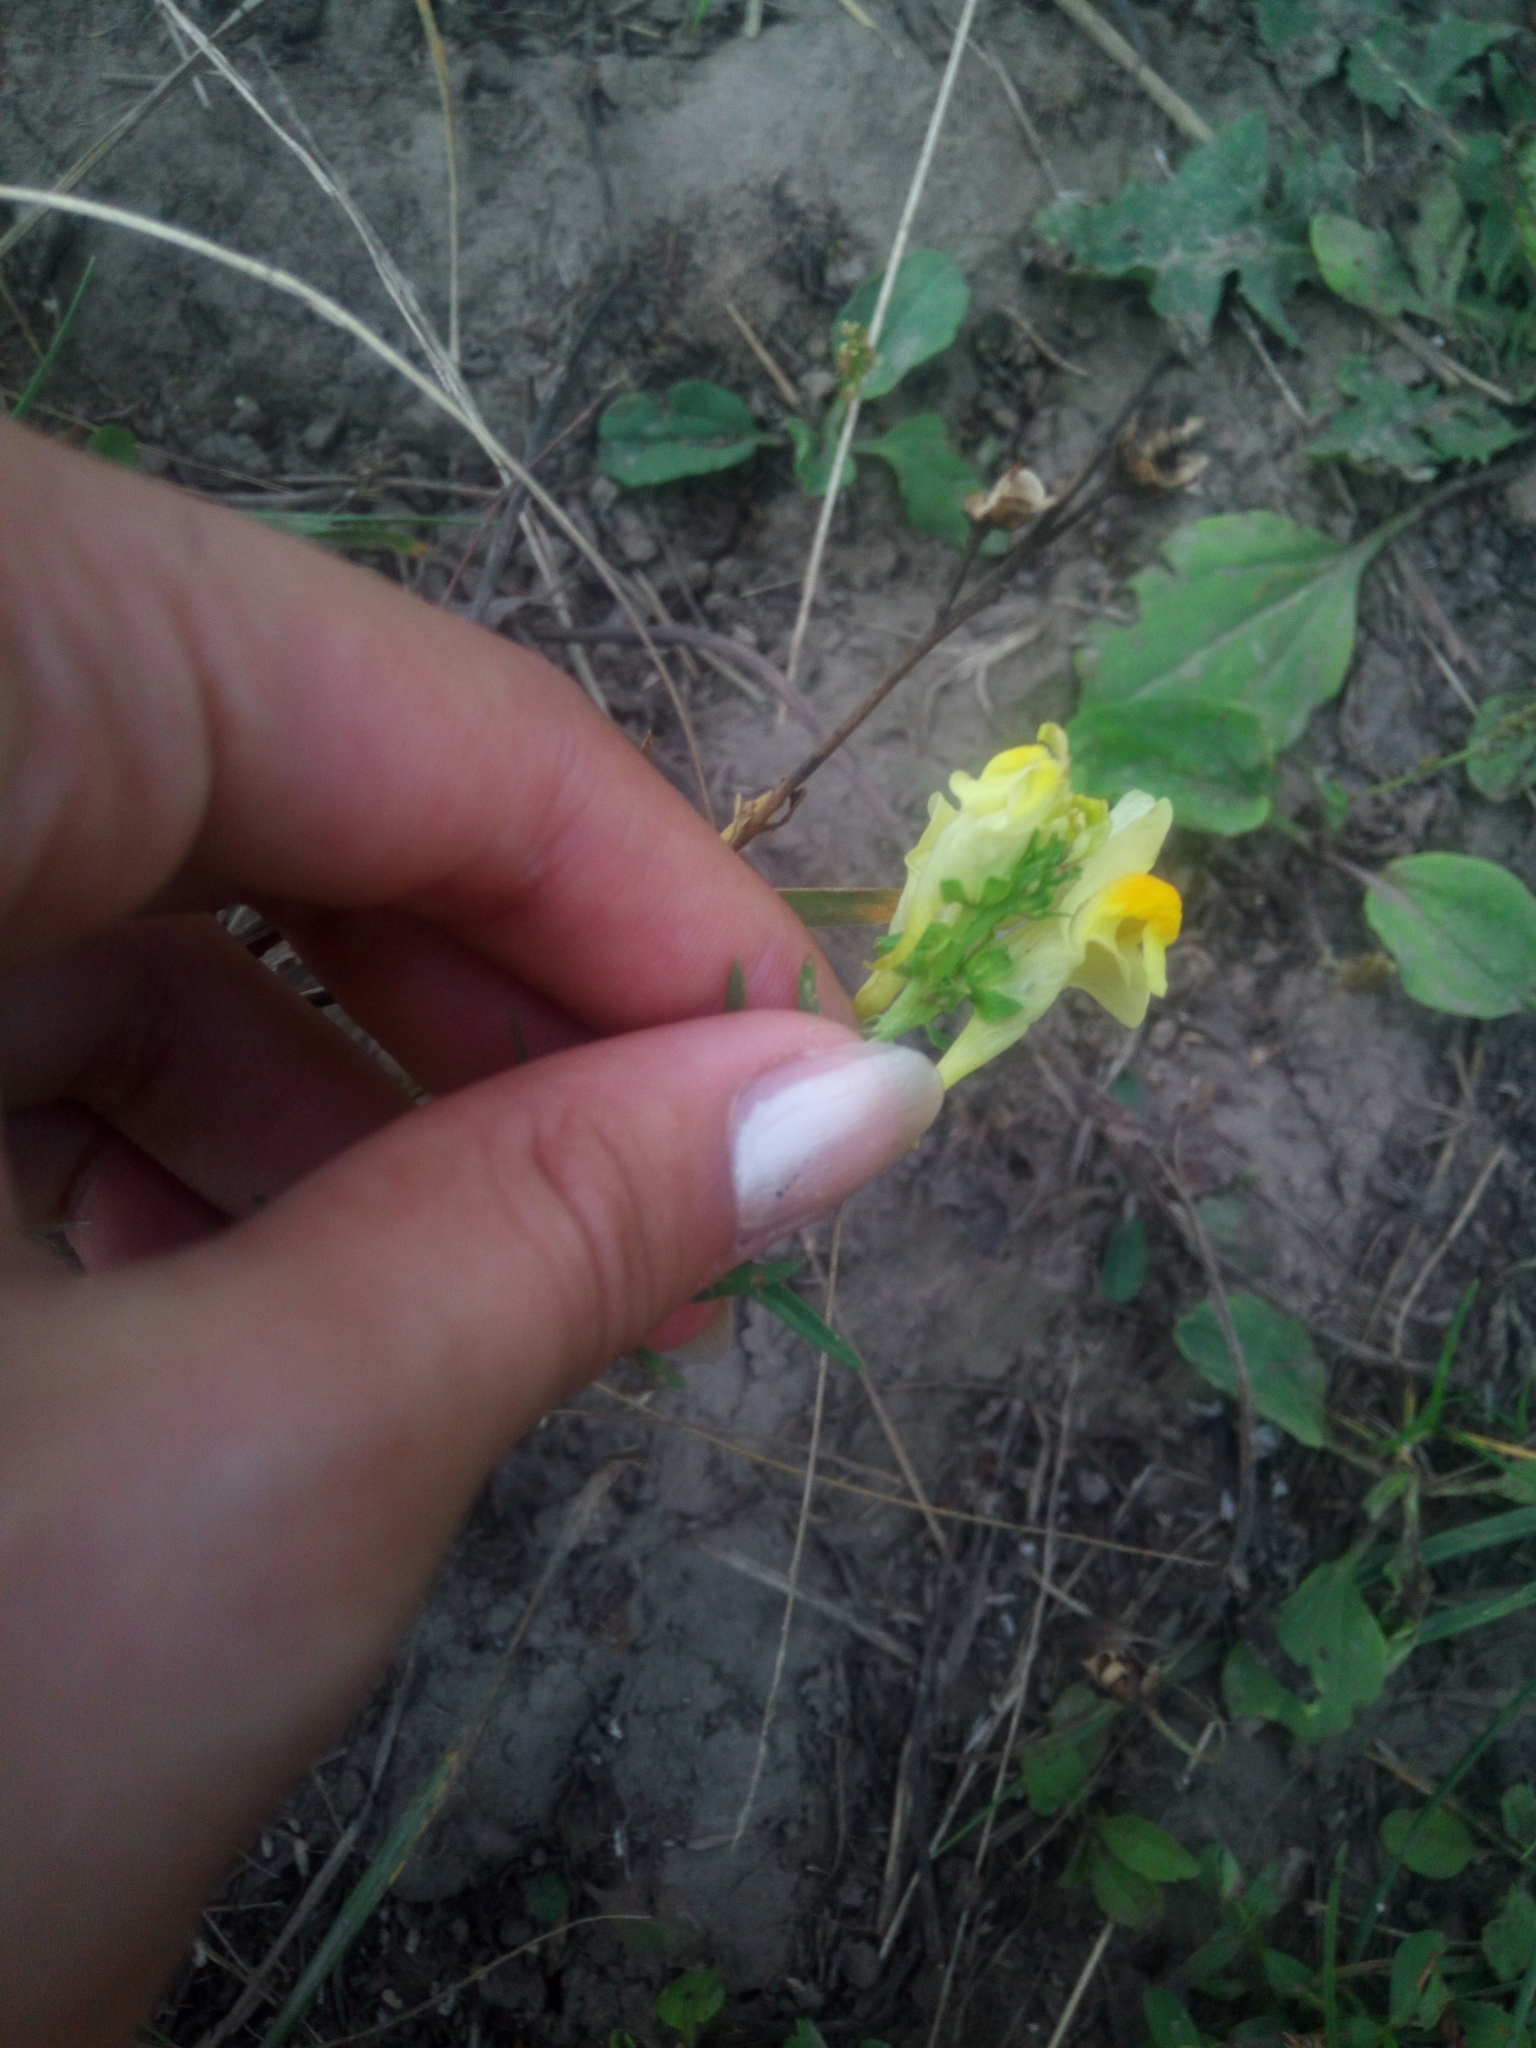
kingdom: Plantae
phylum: Tracheophyta
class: Magnoliopsida
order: Lamiales
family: Plantaginaceae
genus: Linaria
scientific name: Linaria vulgaris
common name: Butter and eggs
